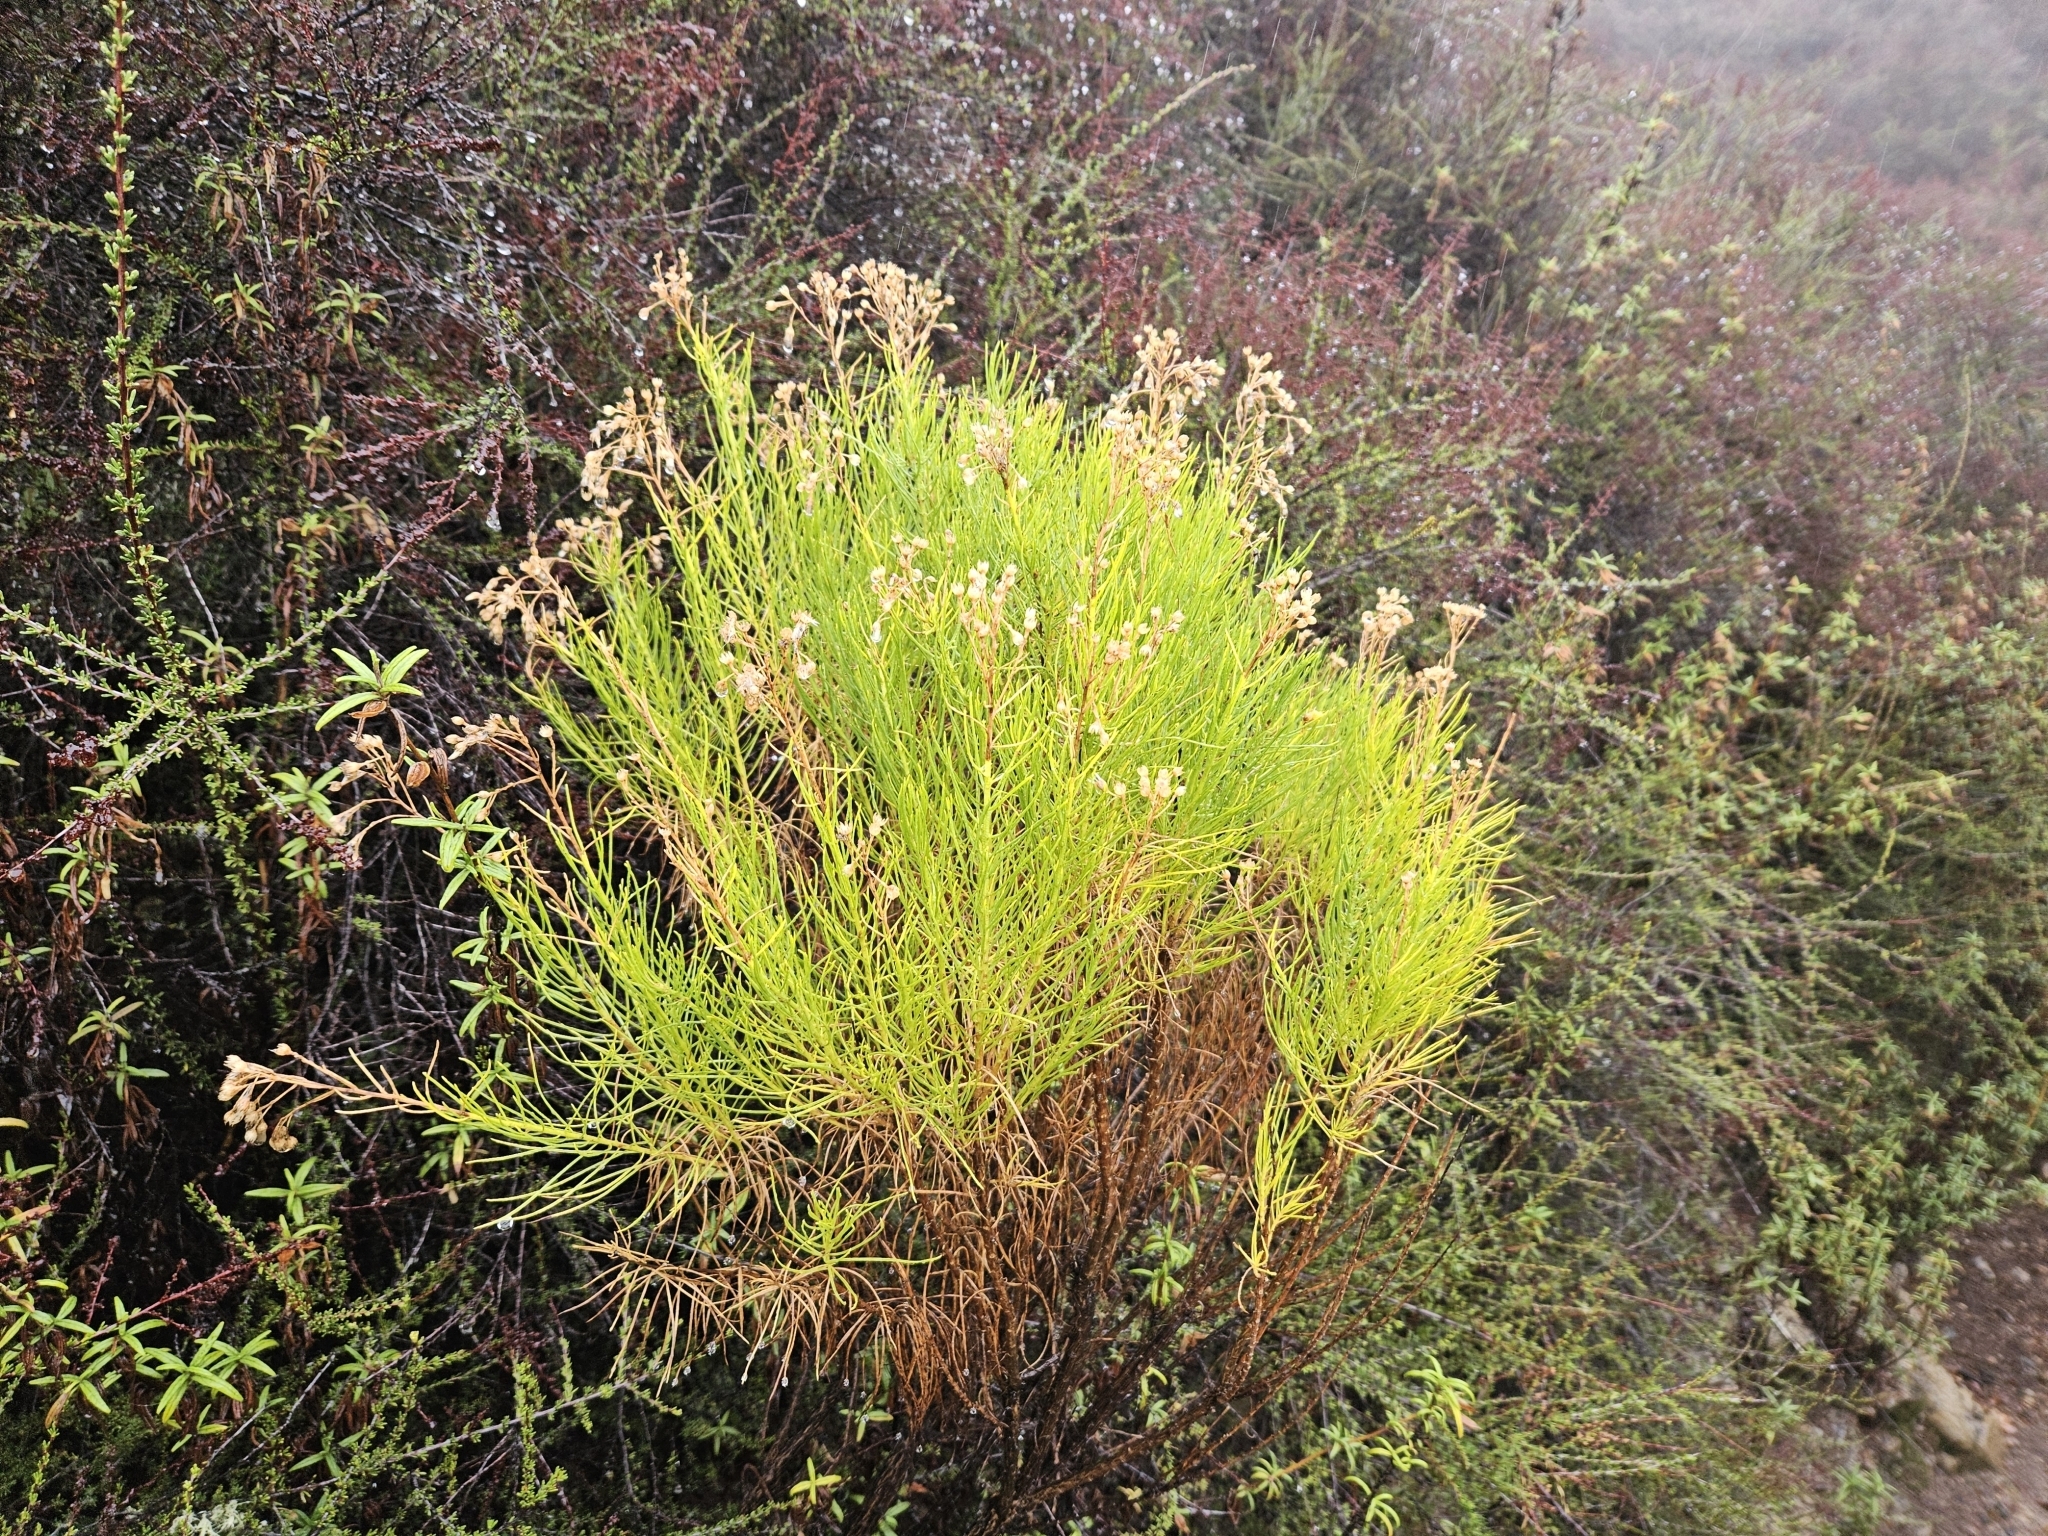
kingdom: Plantae
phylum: Tracheophyta
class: Magnoliopsida
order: Asterales
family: Asteraceae
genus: Ericameria
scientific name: Ericameria arborescens
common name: Goldenfleece
